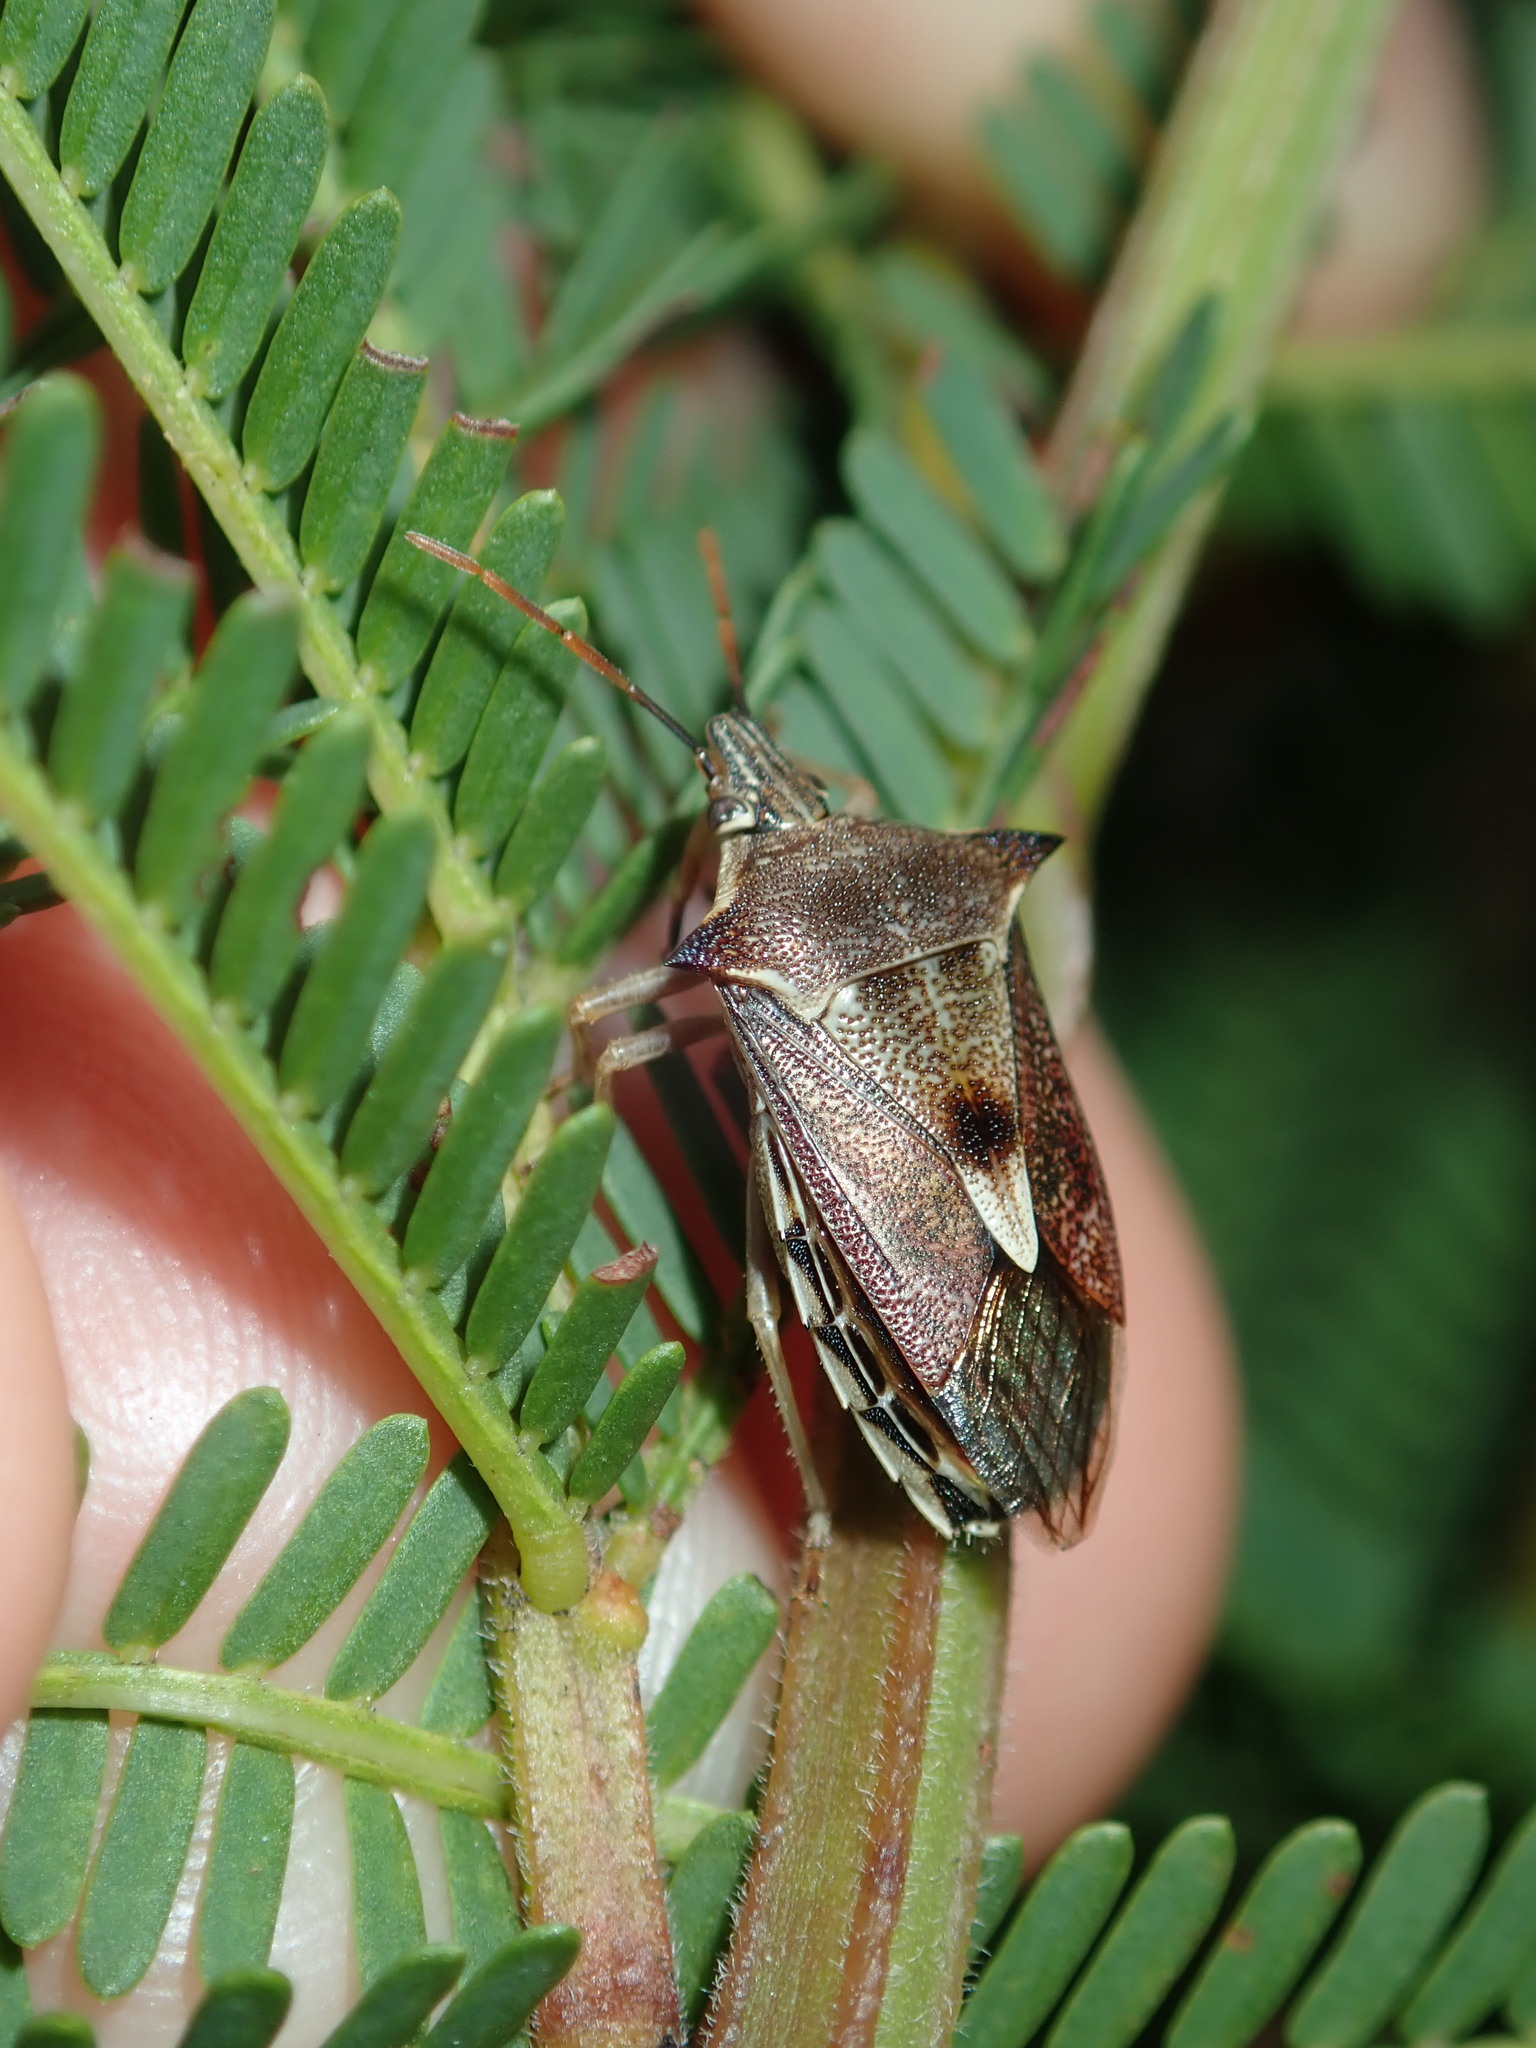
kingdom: Animalia
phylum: Arthropoda
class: Insecta
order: Hemiptera
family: Pentatomidae
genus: Oechalia
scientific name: Oechalia schellenbergii
